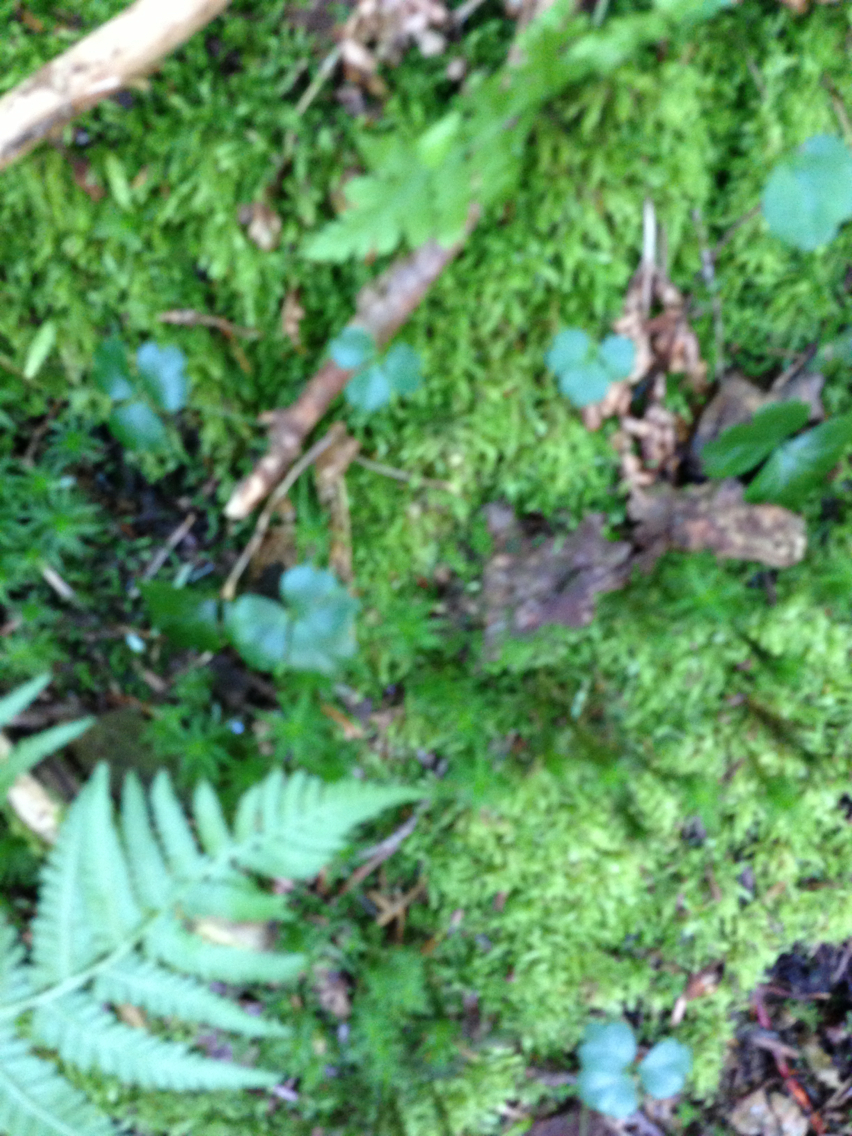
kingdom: Plantae
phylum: Tracheophyta
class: Magnoliopsida
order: Ranunculales
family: Ranunculaceae
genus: Coptis
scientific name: Coptis trifolia
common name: Canker-root
